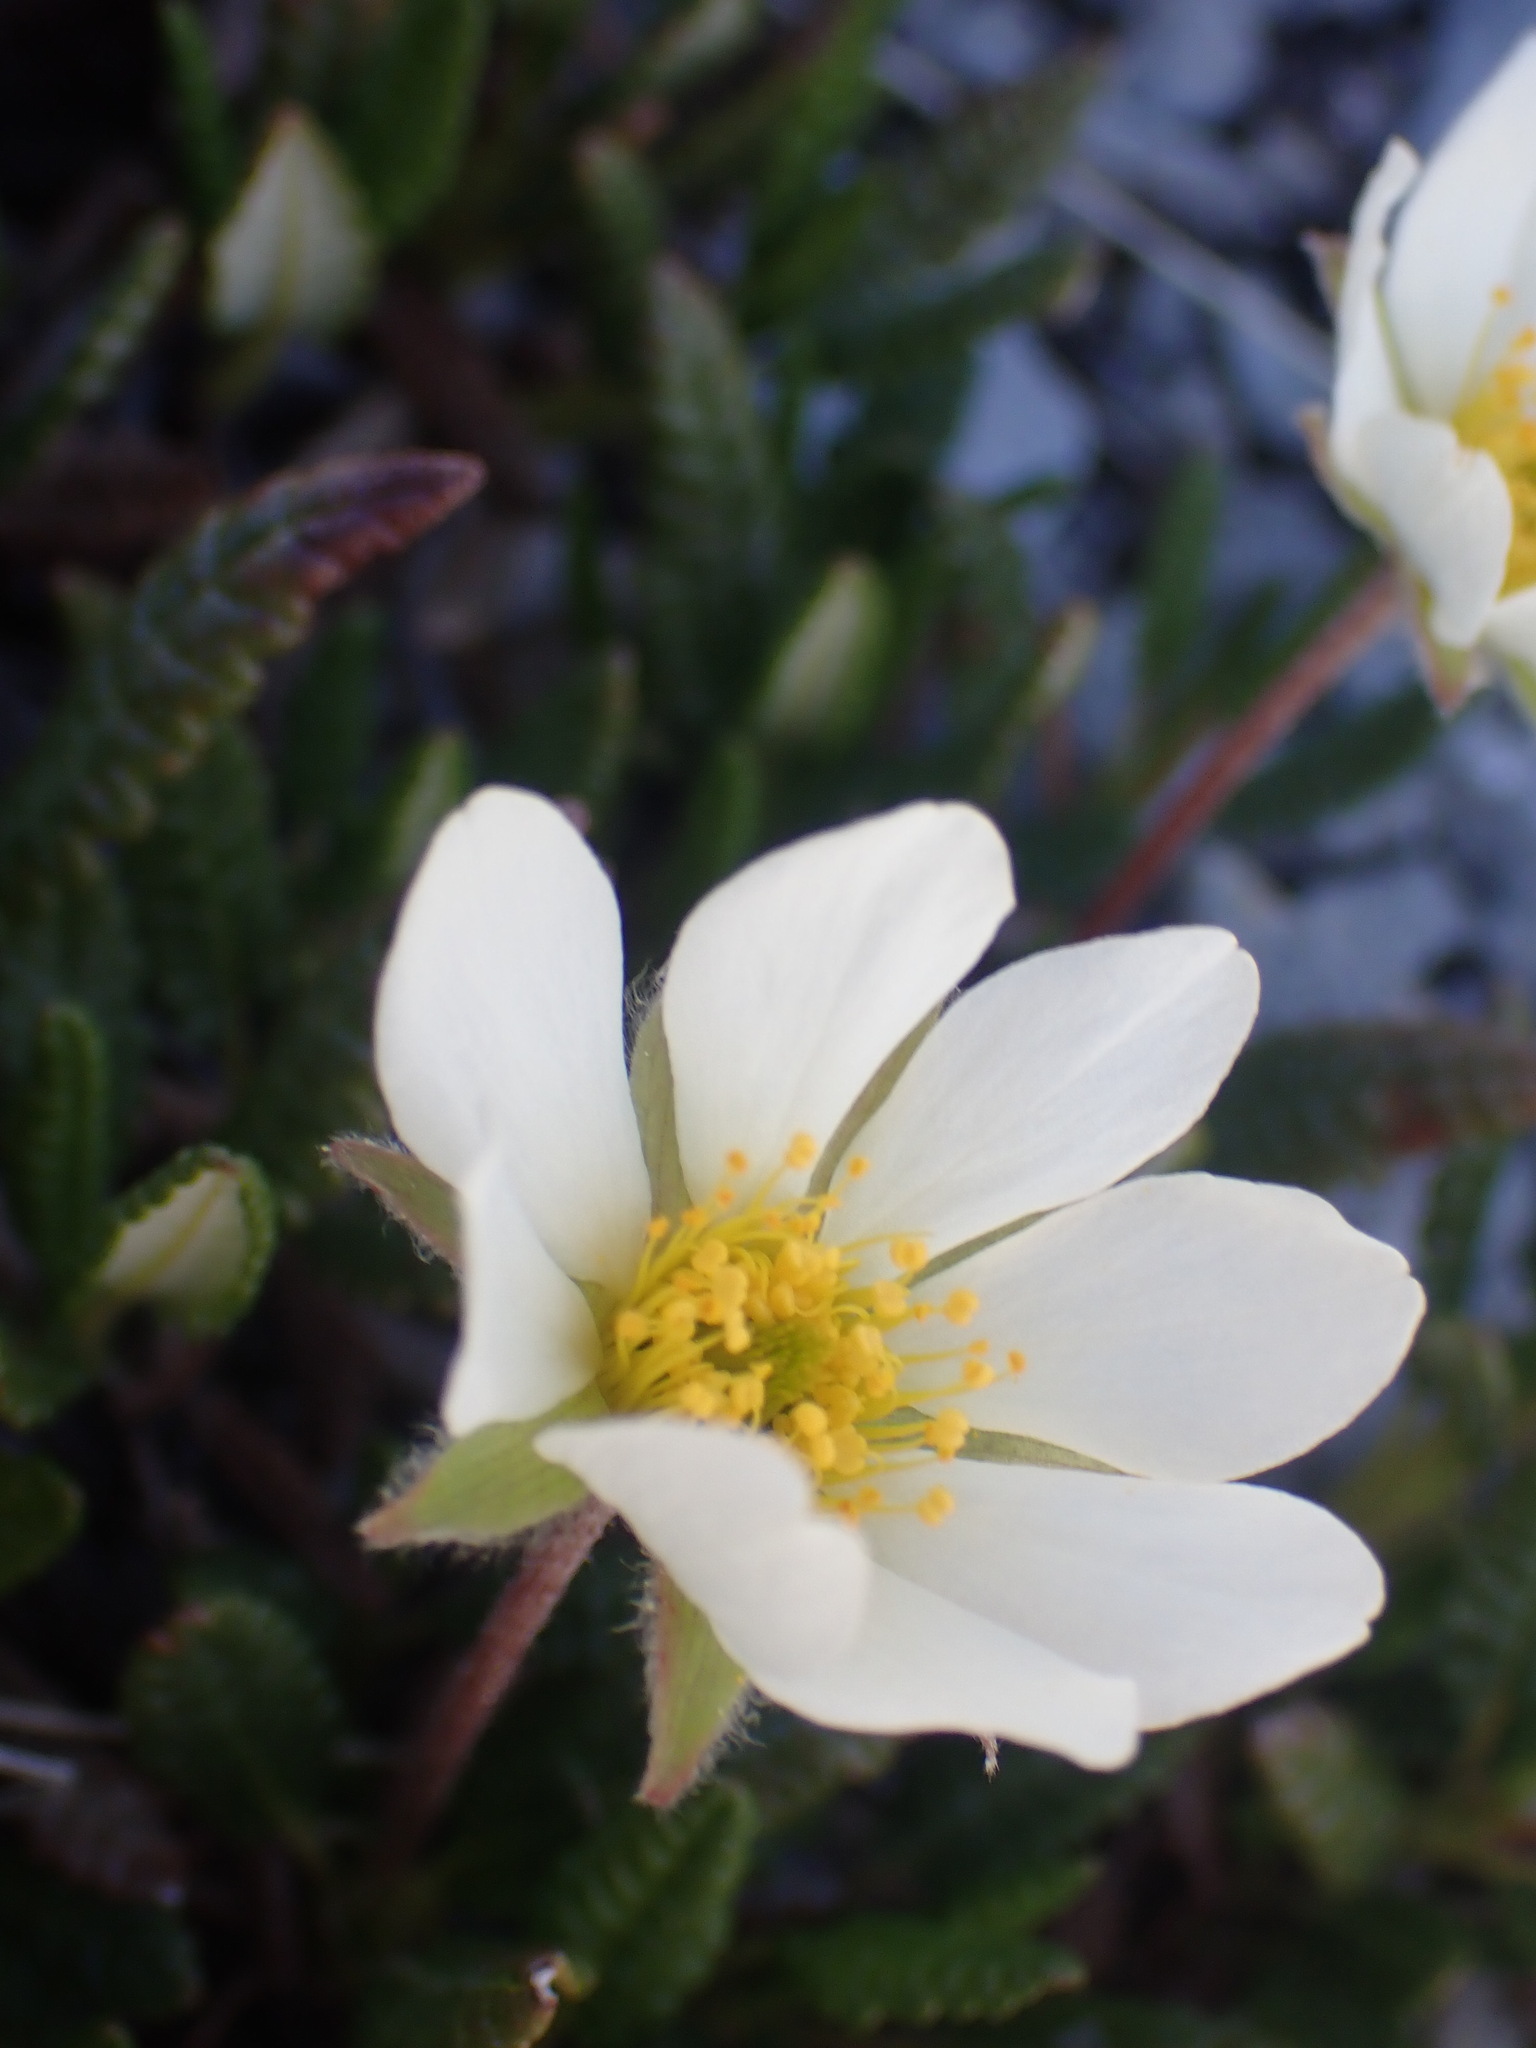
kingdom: Plantae
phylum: Tracheophyta
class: Magnoliopsida
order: Rosales
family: Rosaceae
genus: Dryas
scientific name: Dryas octopetala
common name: Eight-petal mountain-avens
